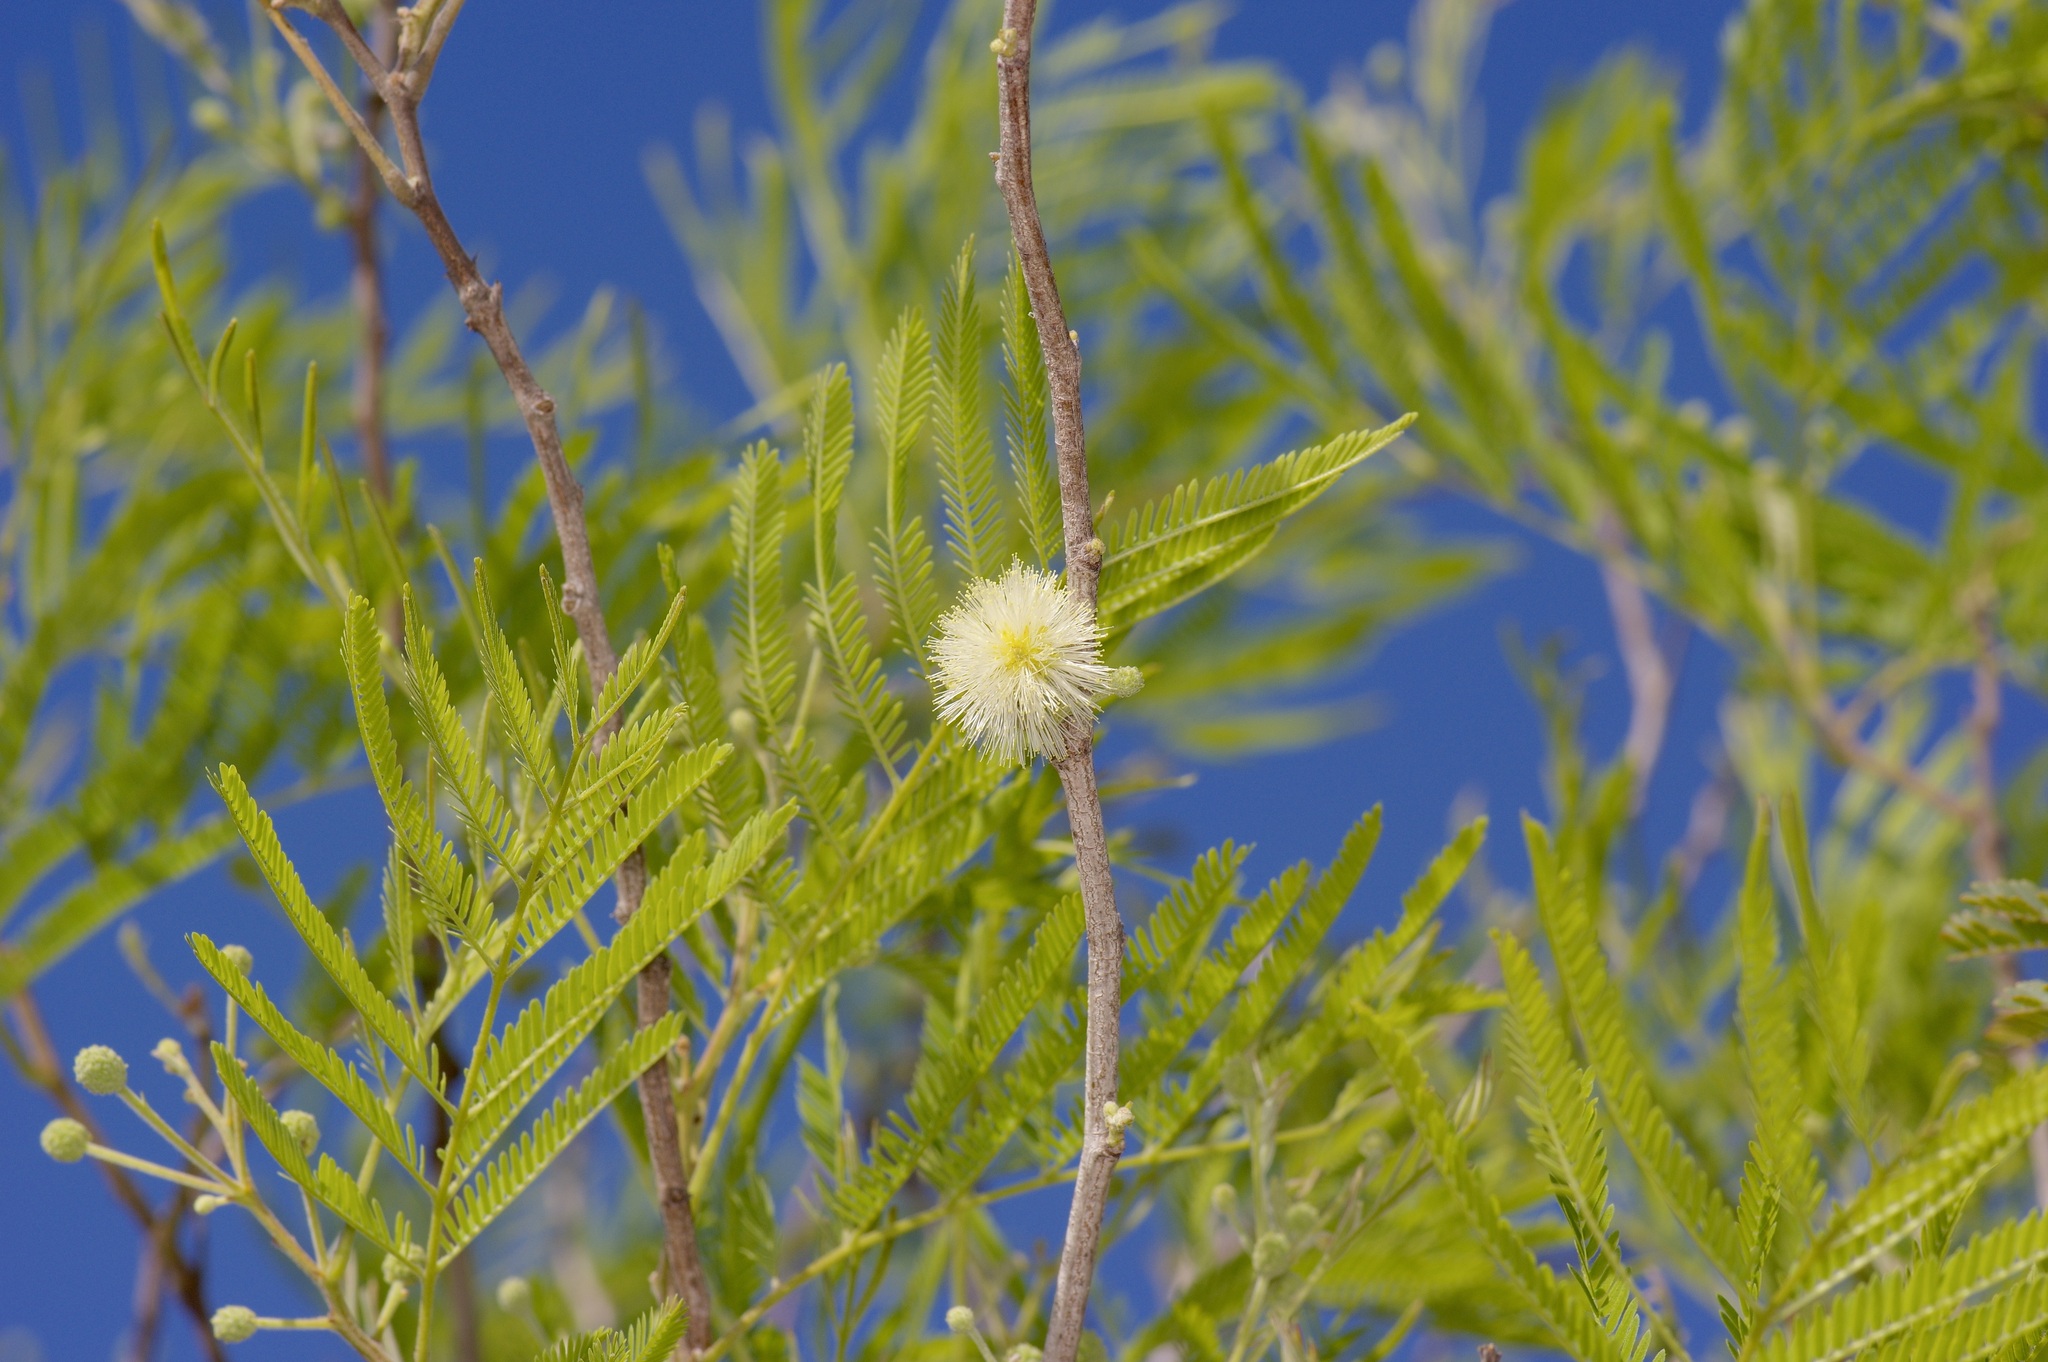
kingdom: Plantae
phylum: Tracheophyta
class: Magnoliopsida
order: Fabales
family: Fabaceae
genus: Senegalia
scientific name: Senegalia berlandieri
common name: Berlandier acacia
